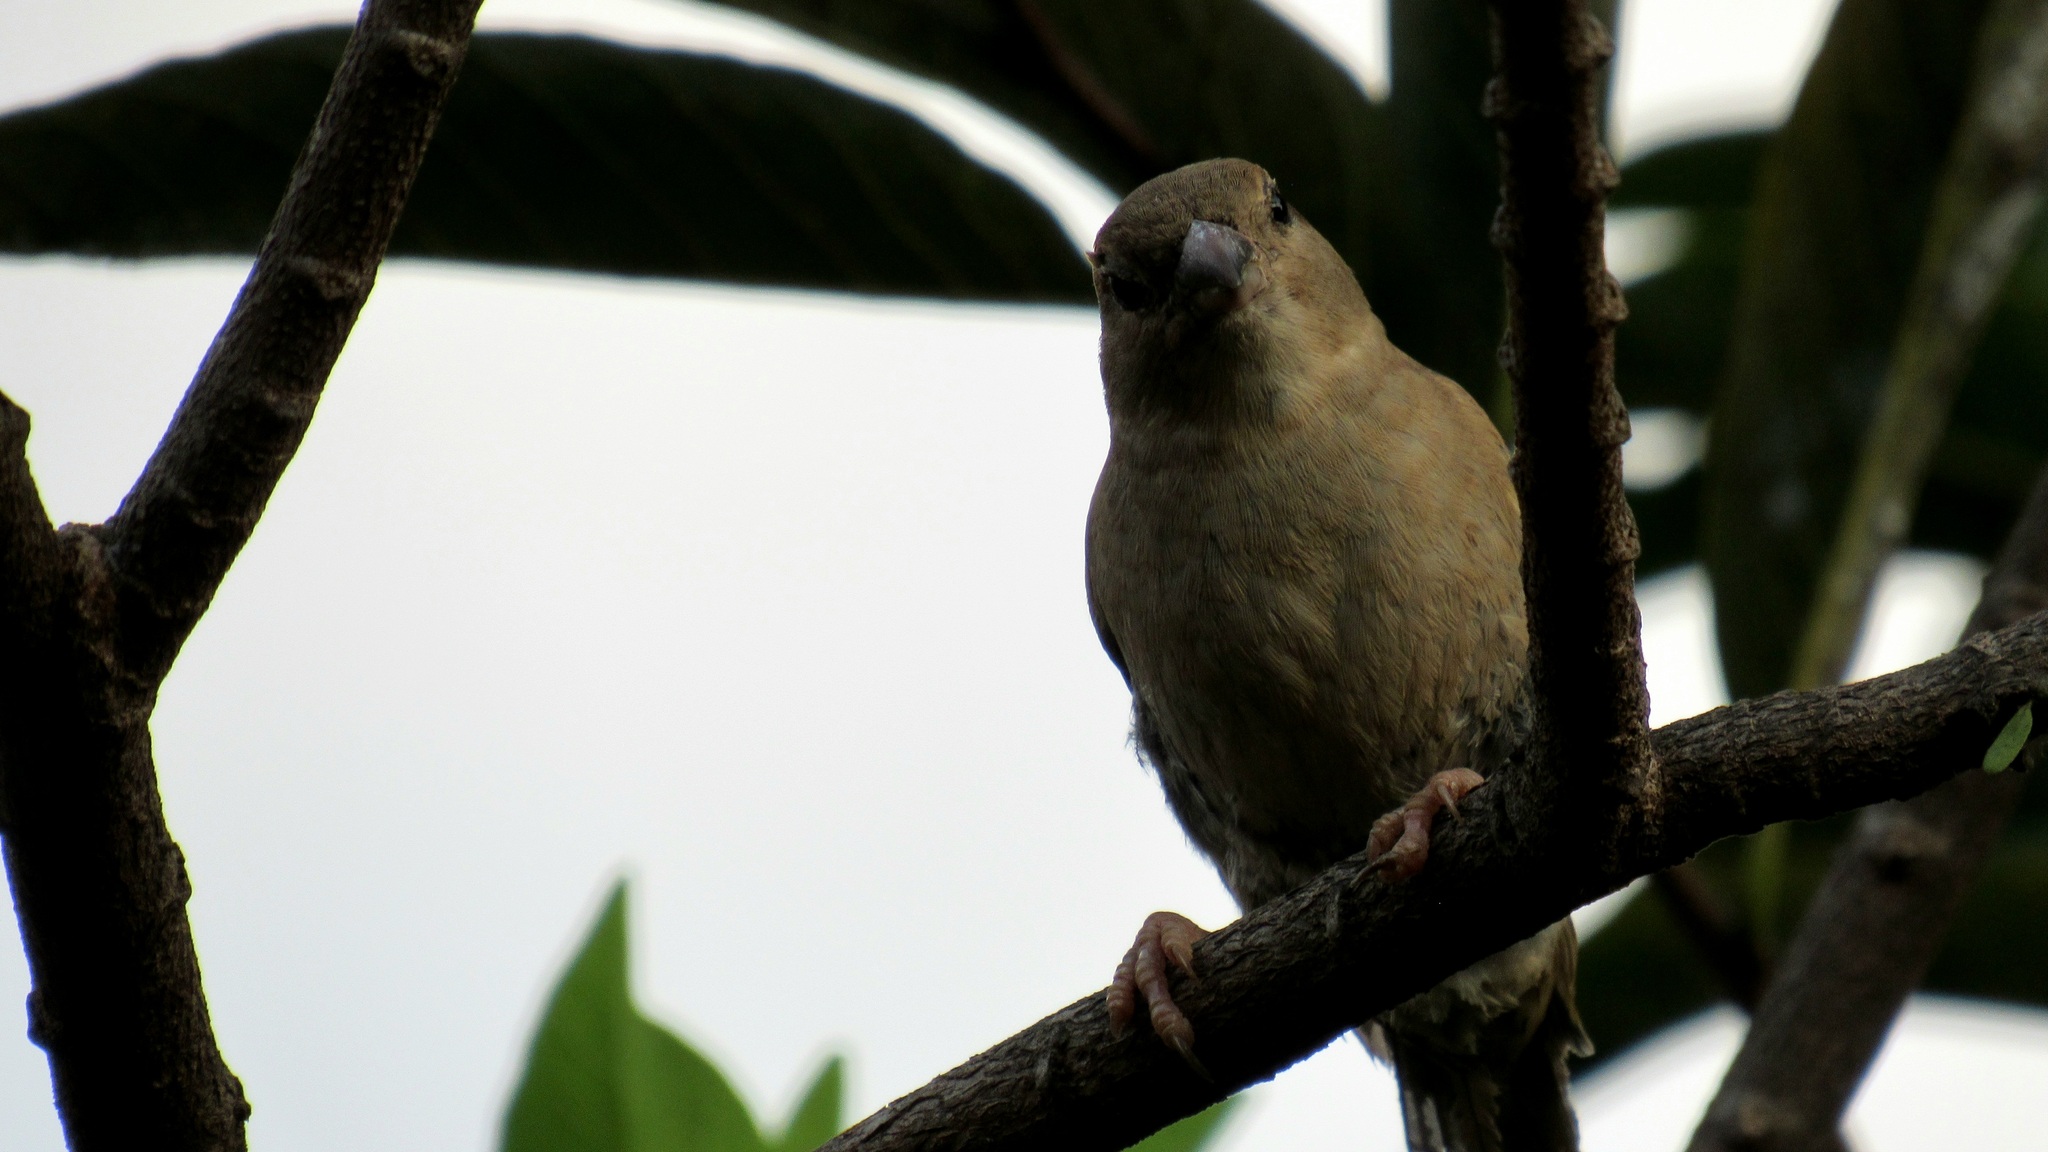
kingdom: Animalia
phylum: Chordata
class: Aves
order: Passeriformes
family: Passeridae
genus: Passer
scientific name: Passer domesticus
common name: House sparrow
